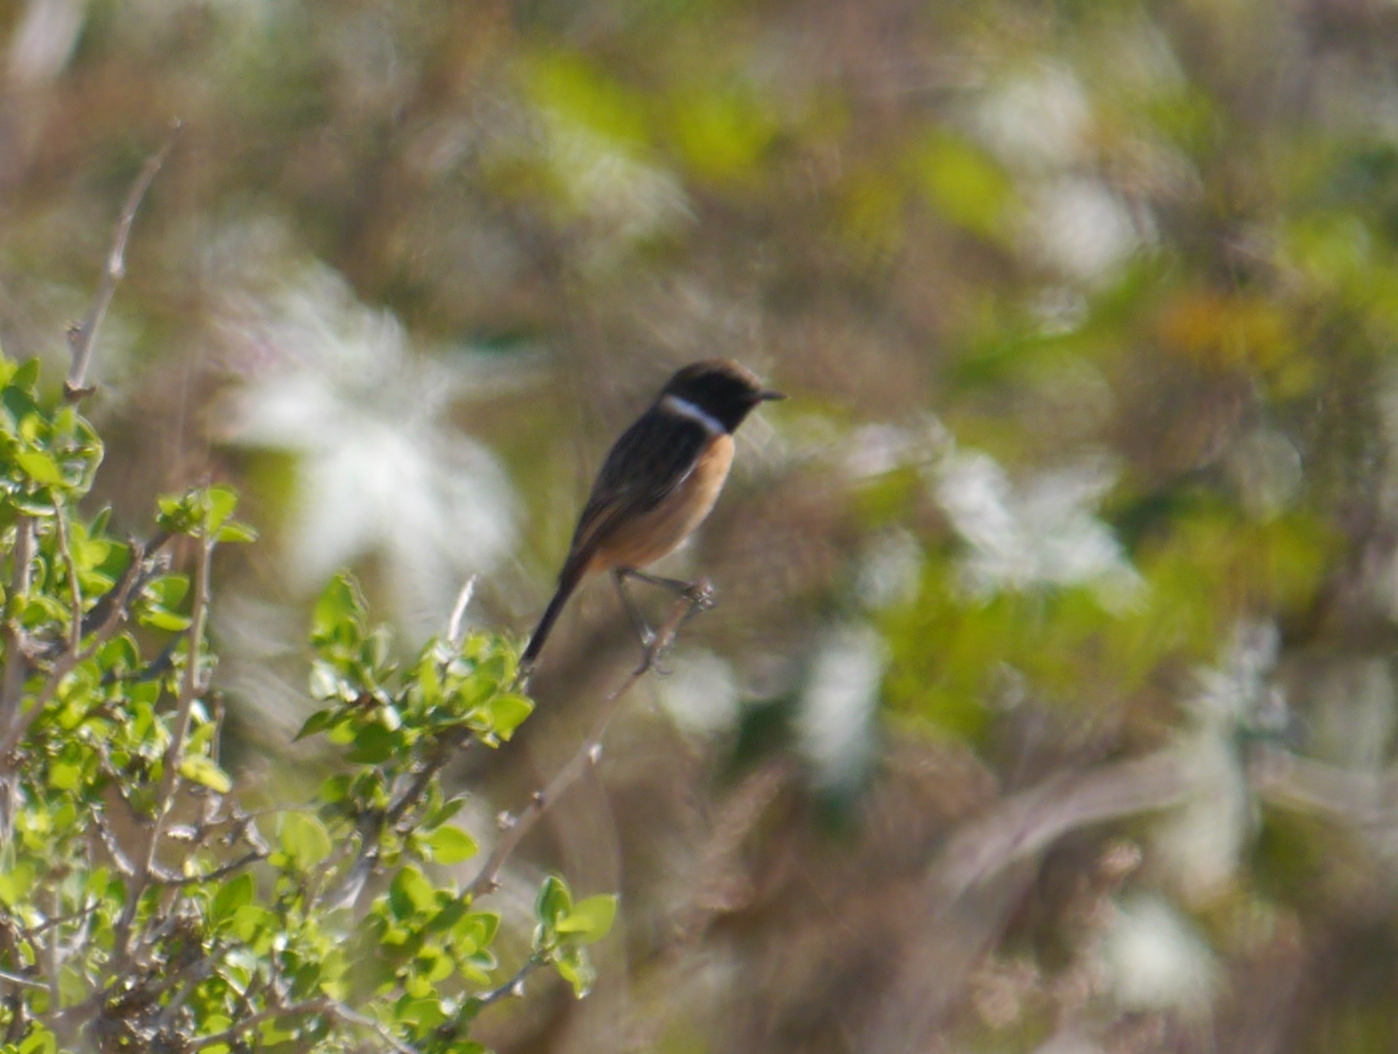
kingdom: Animalia
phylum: Chordata
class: Aves
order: Passeriformes
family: Muscicapidae
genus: Saxicola
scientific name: Saxicola rubicola
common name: European stonechat
